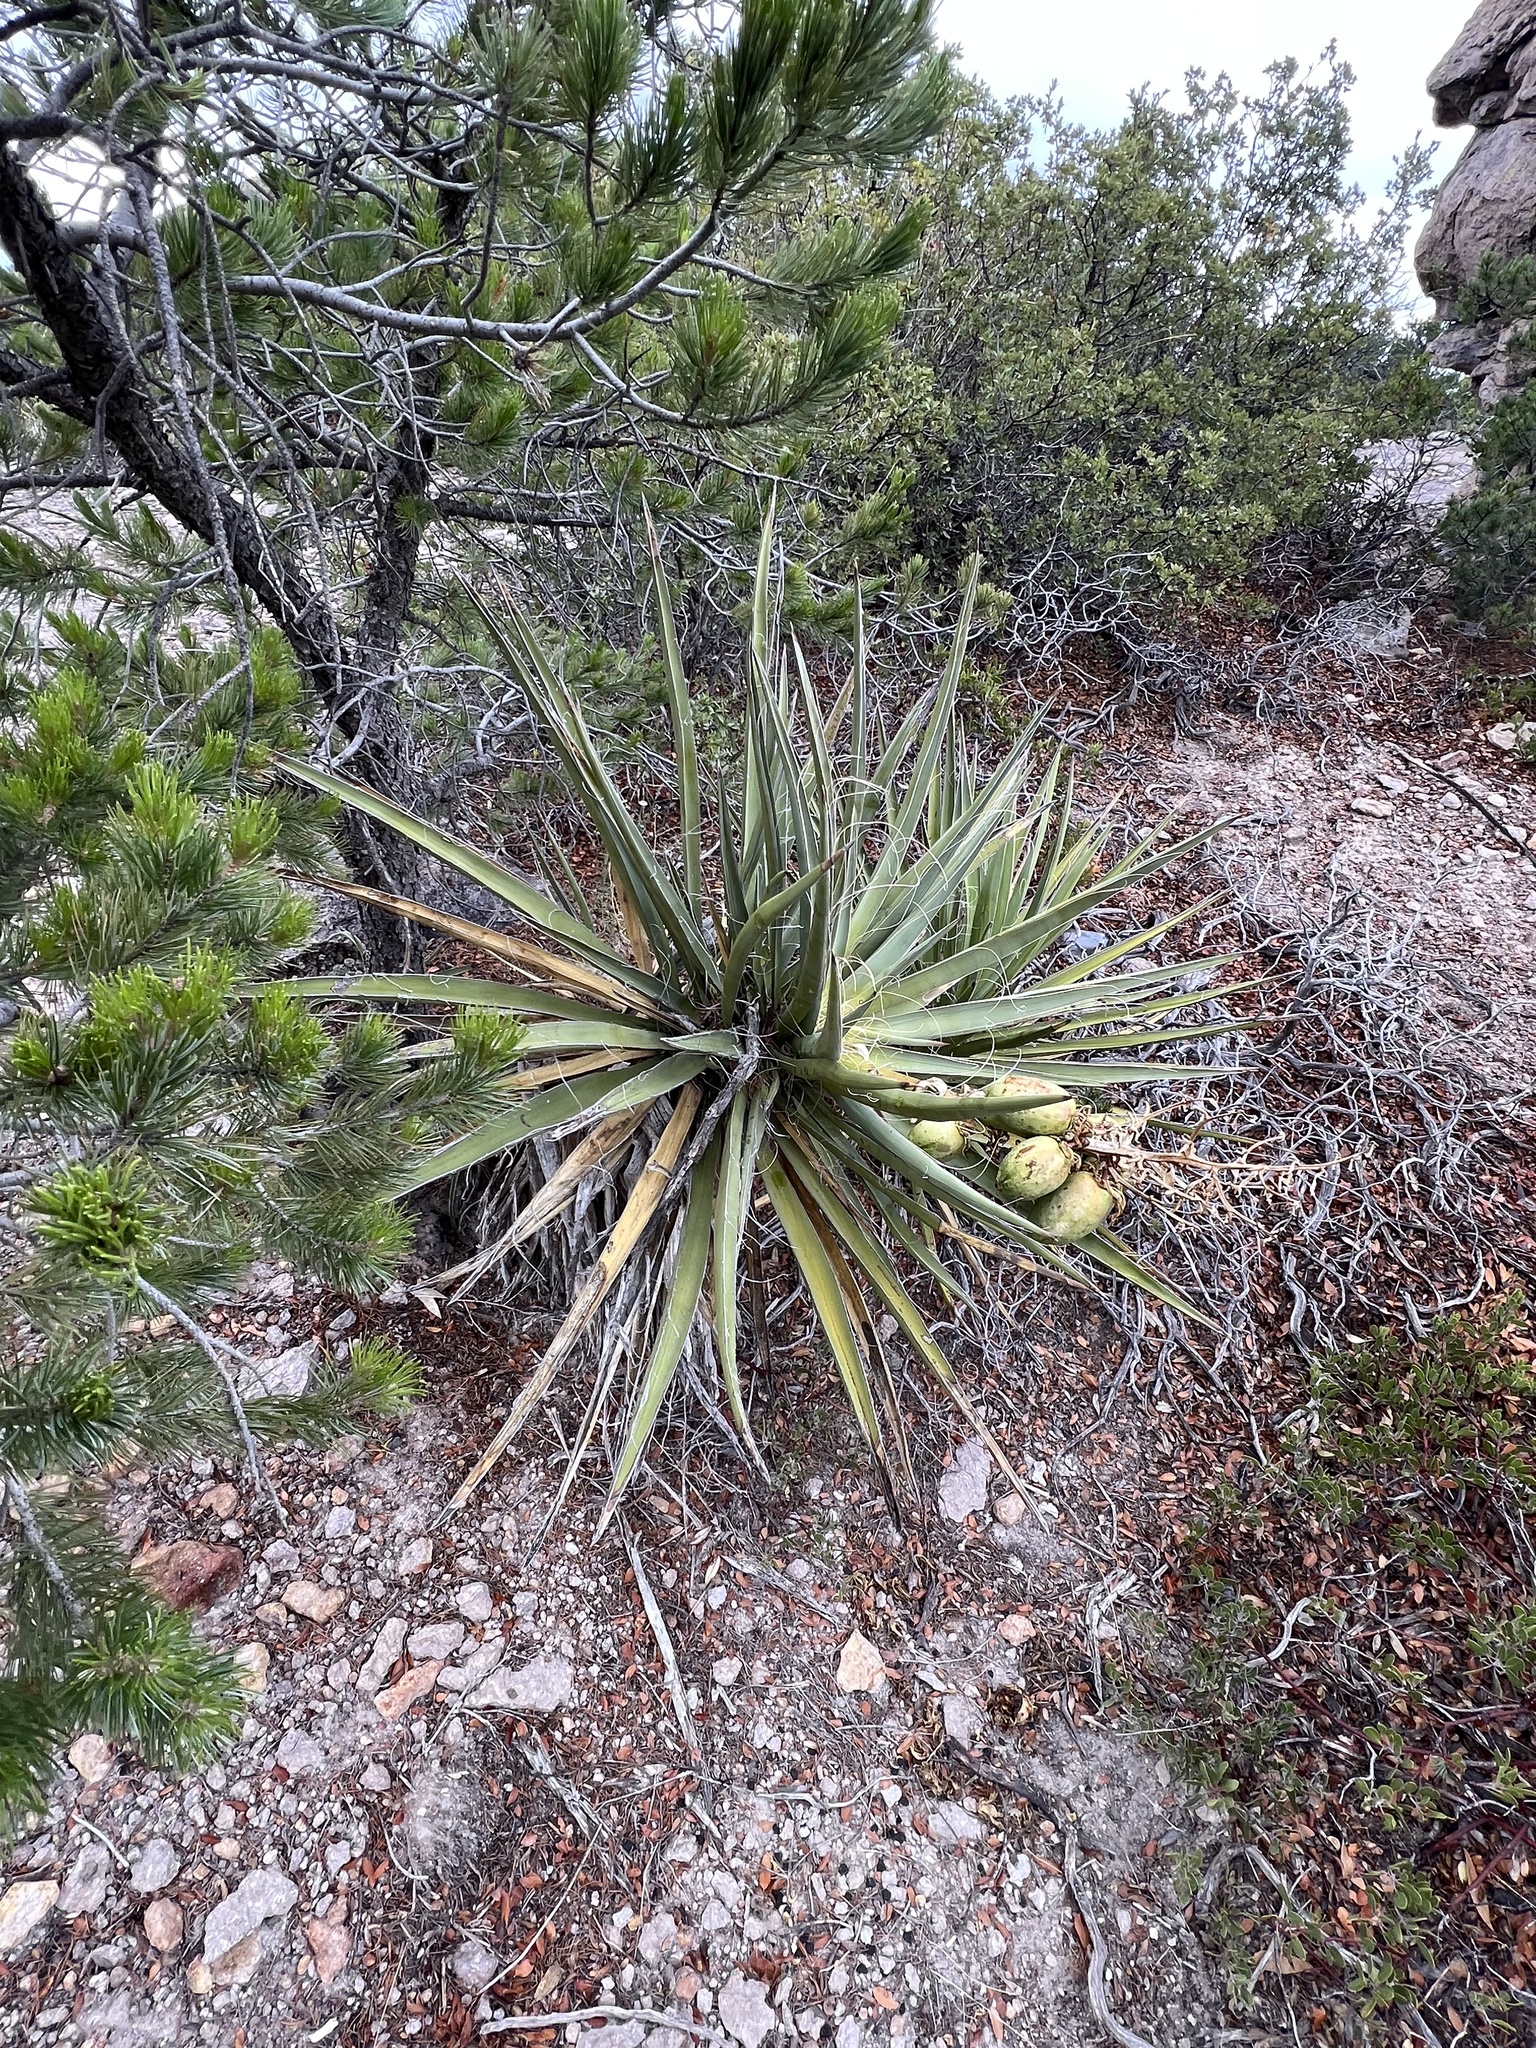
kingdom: Plantae
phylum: Tracheophyta
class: Liliopsida
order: Asparagales
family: Asparagaceae
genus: Yucca
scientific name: Yucca baccata
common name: Banana yucca
